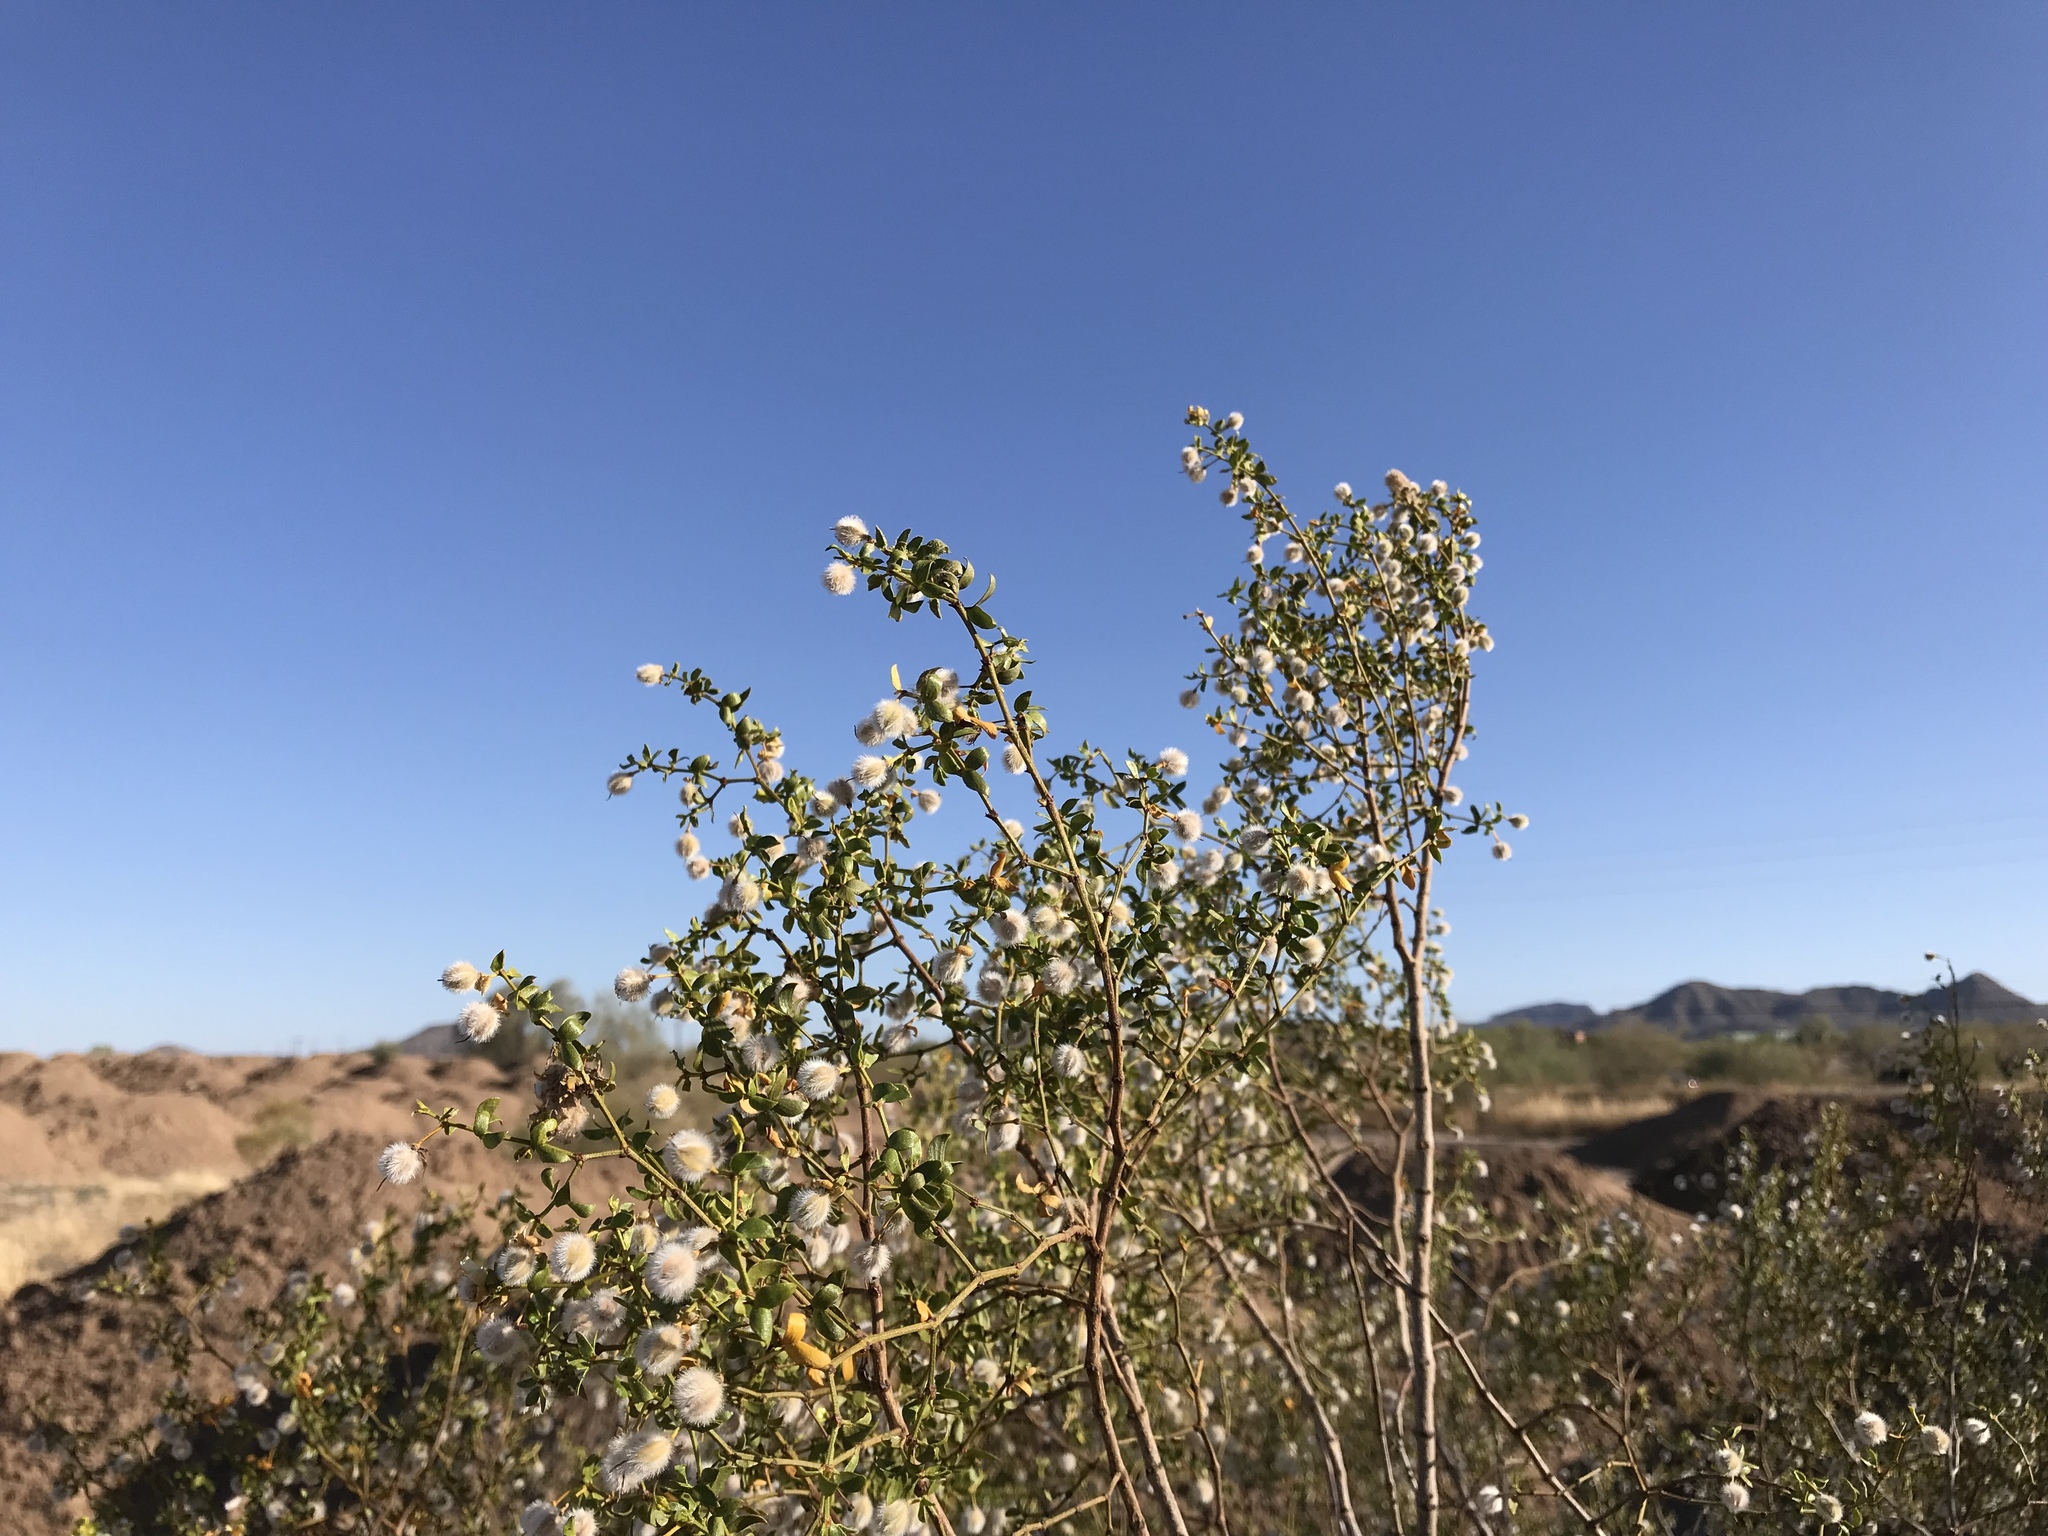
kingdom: Plantae
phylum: Tracheophyta
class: Magnoliopsida
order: Zygophyllales
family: Zygophyllaceae
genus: Larrea
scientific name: Larrea tridentata
